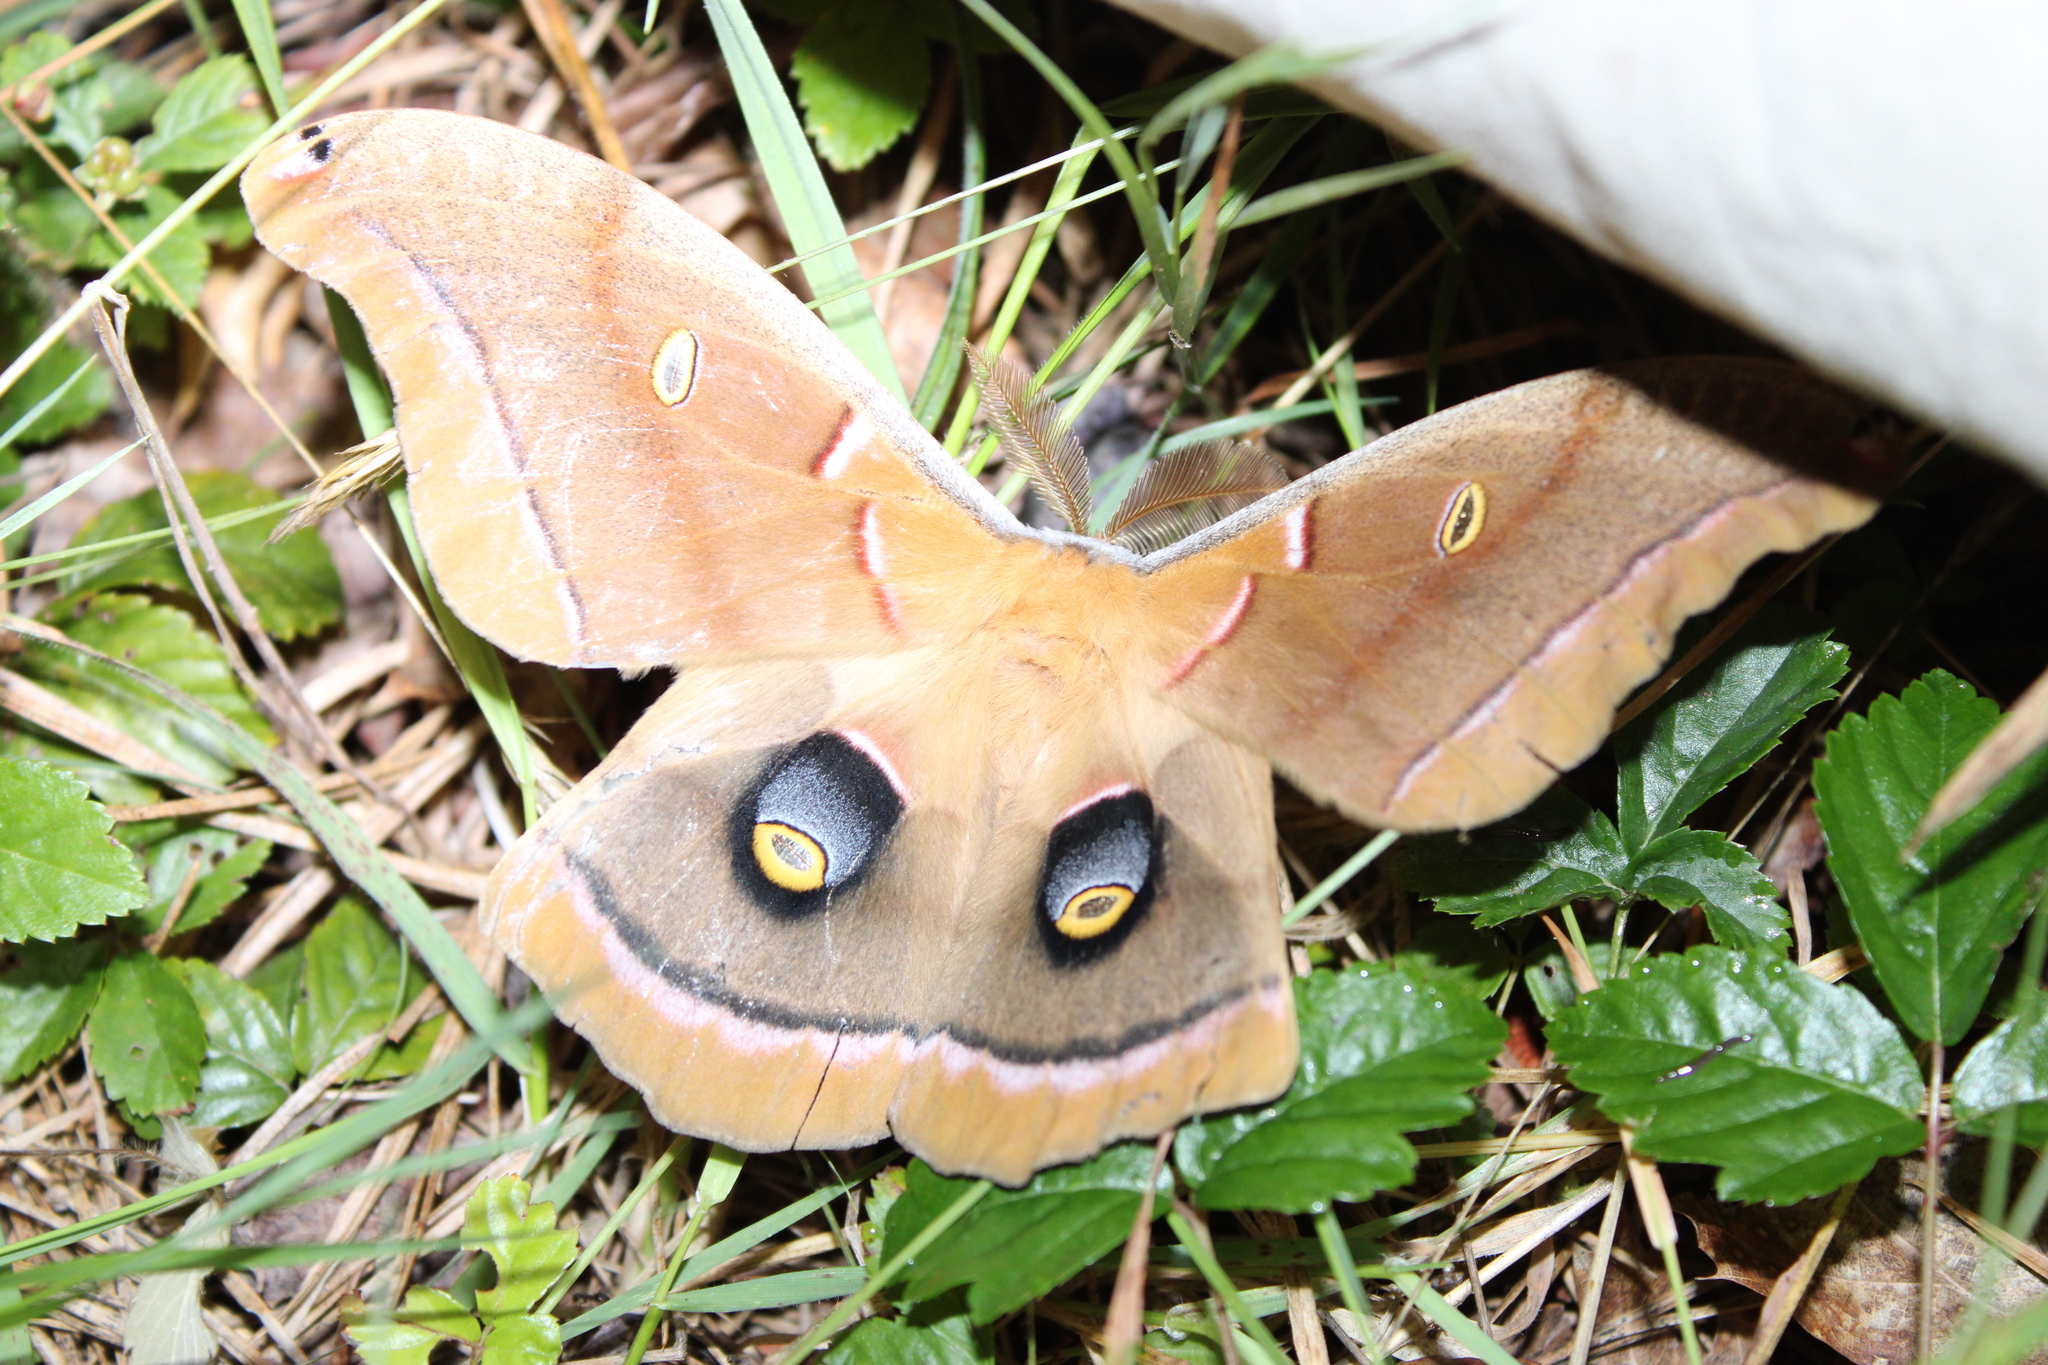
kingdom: Animalia
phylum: Arthropoda
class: Insecta
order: Lepidoptera
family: Saturniidae
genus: Antheraea
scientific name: Antheraea polyphemus
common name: Polyphemus moth
